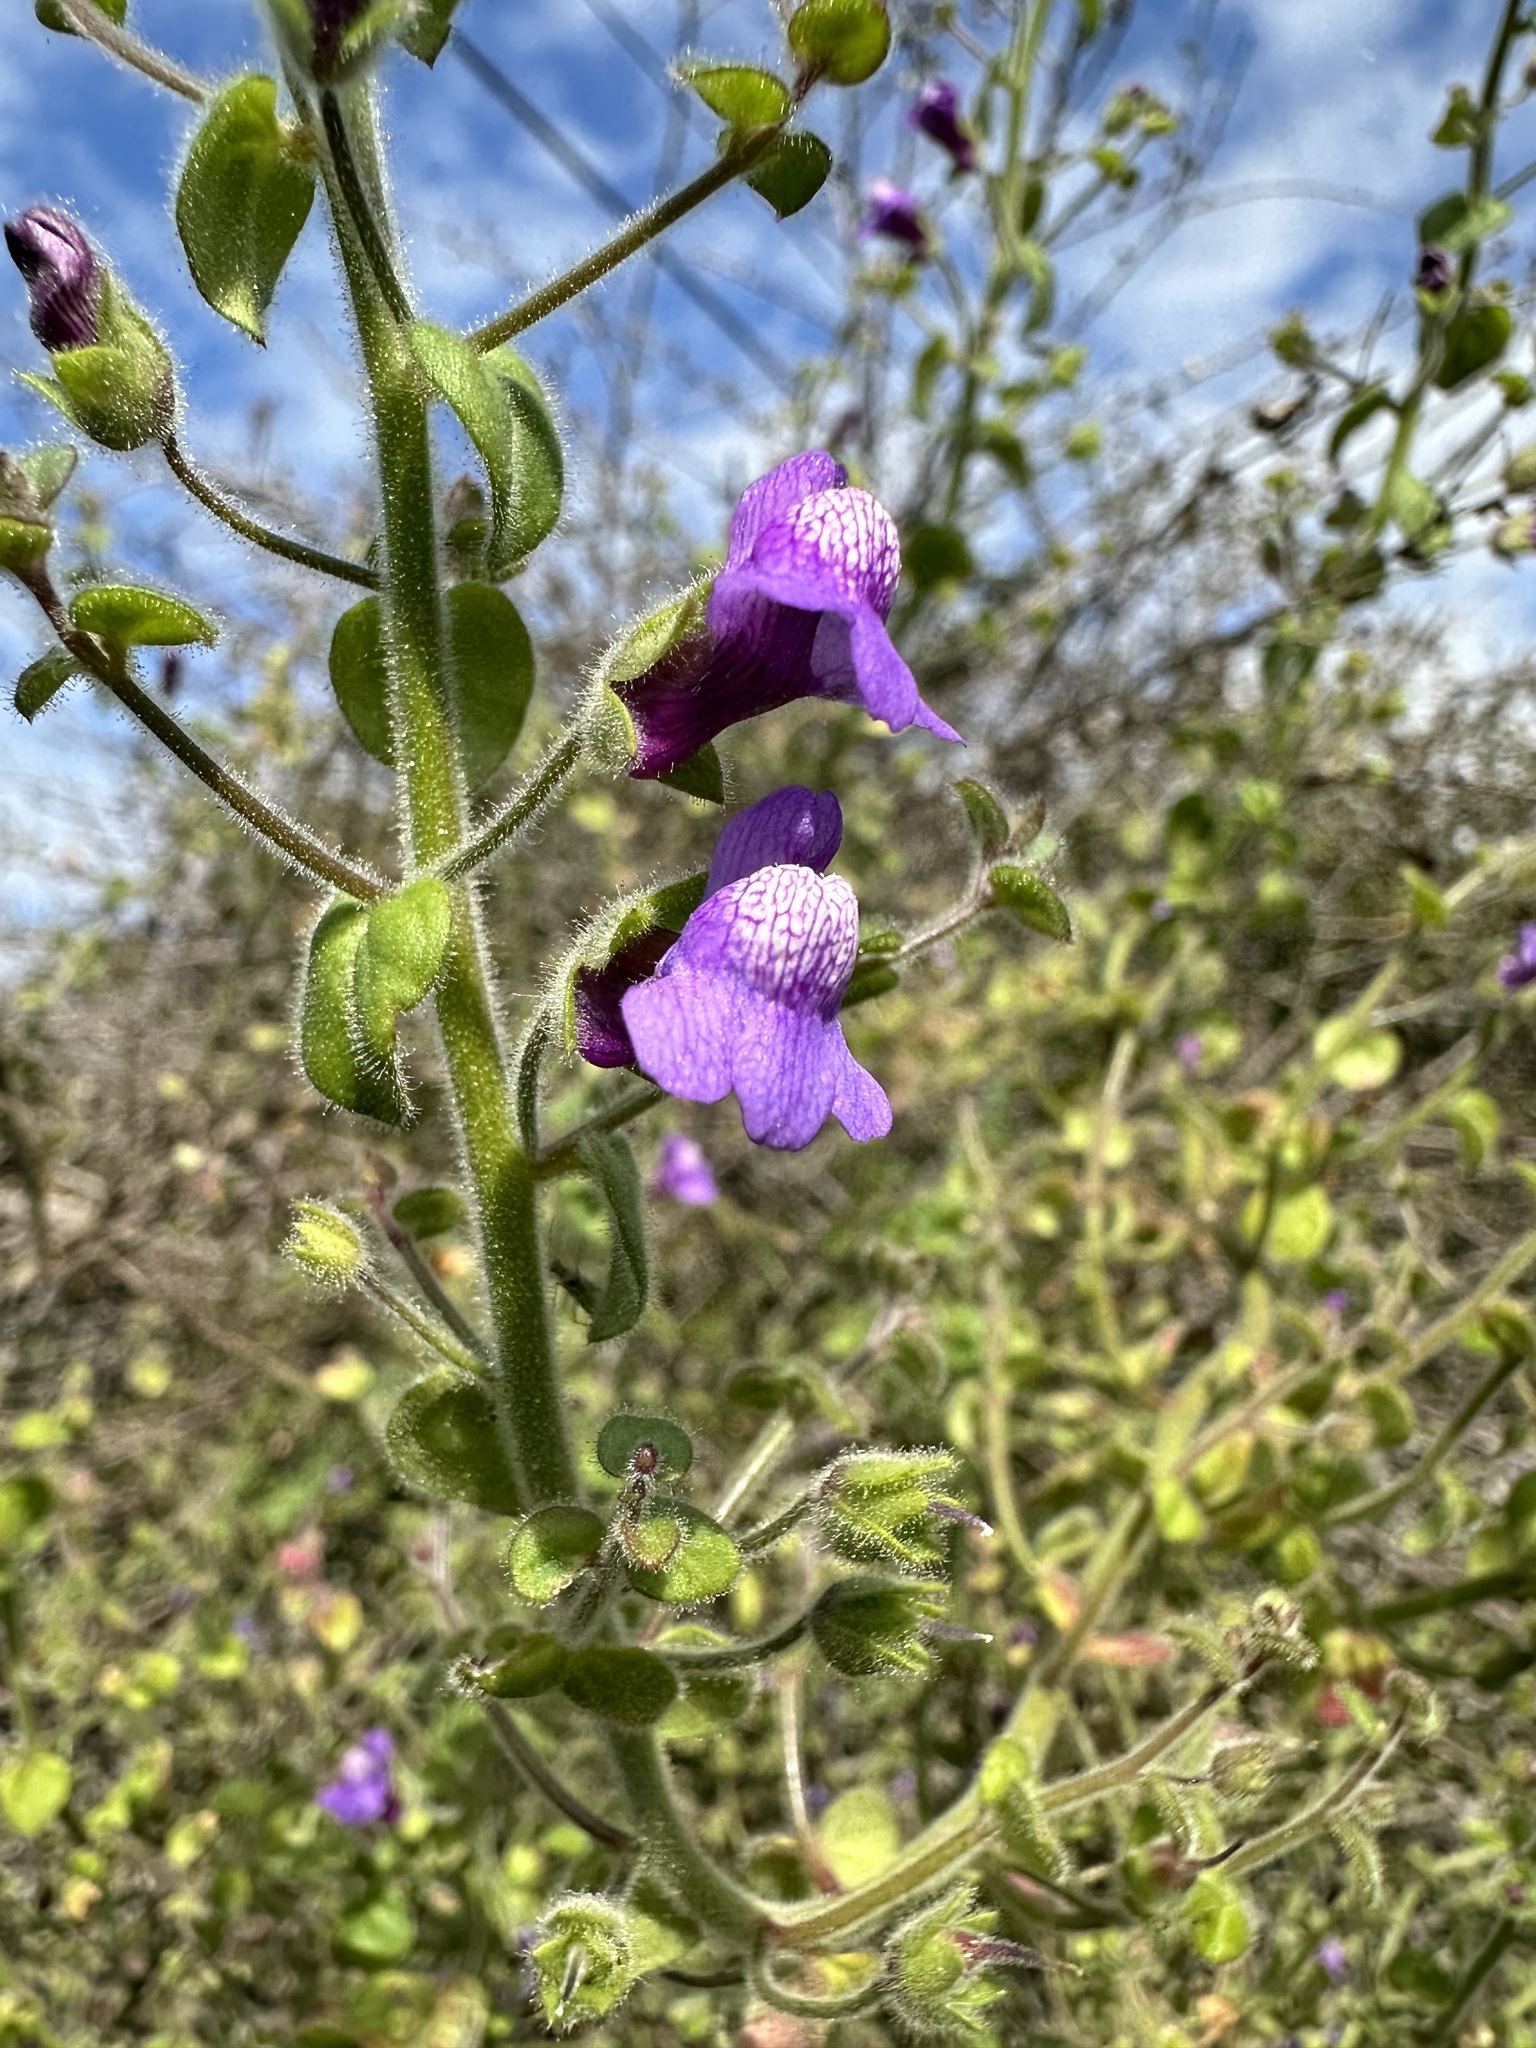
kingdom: Plantae
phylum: Tracheophyta
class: Magnoliopsida
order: Lamiales
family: Plantaginaceae
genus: Sairocarpus
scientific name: Sairocarpus nuttallianus
